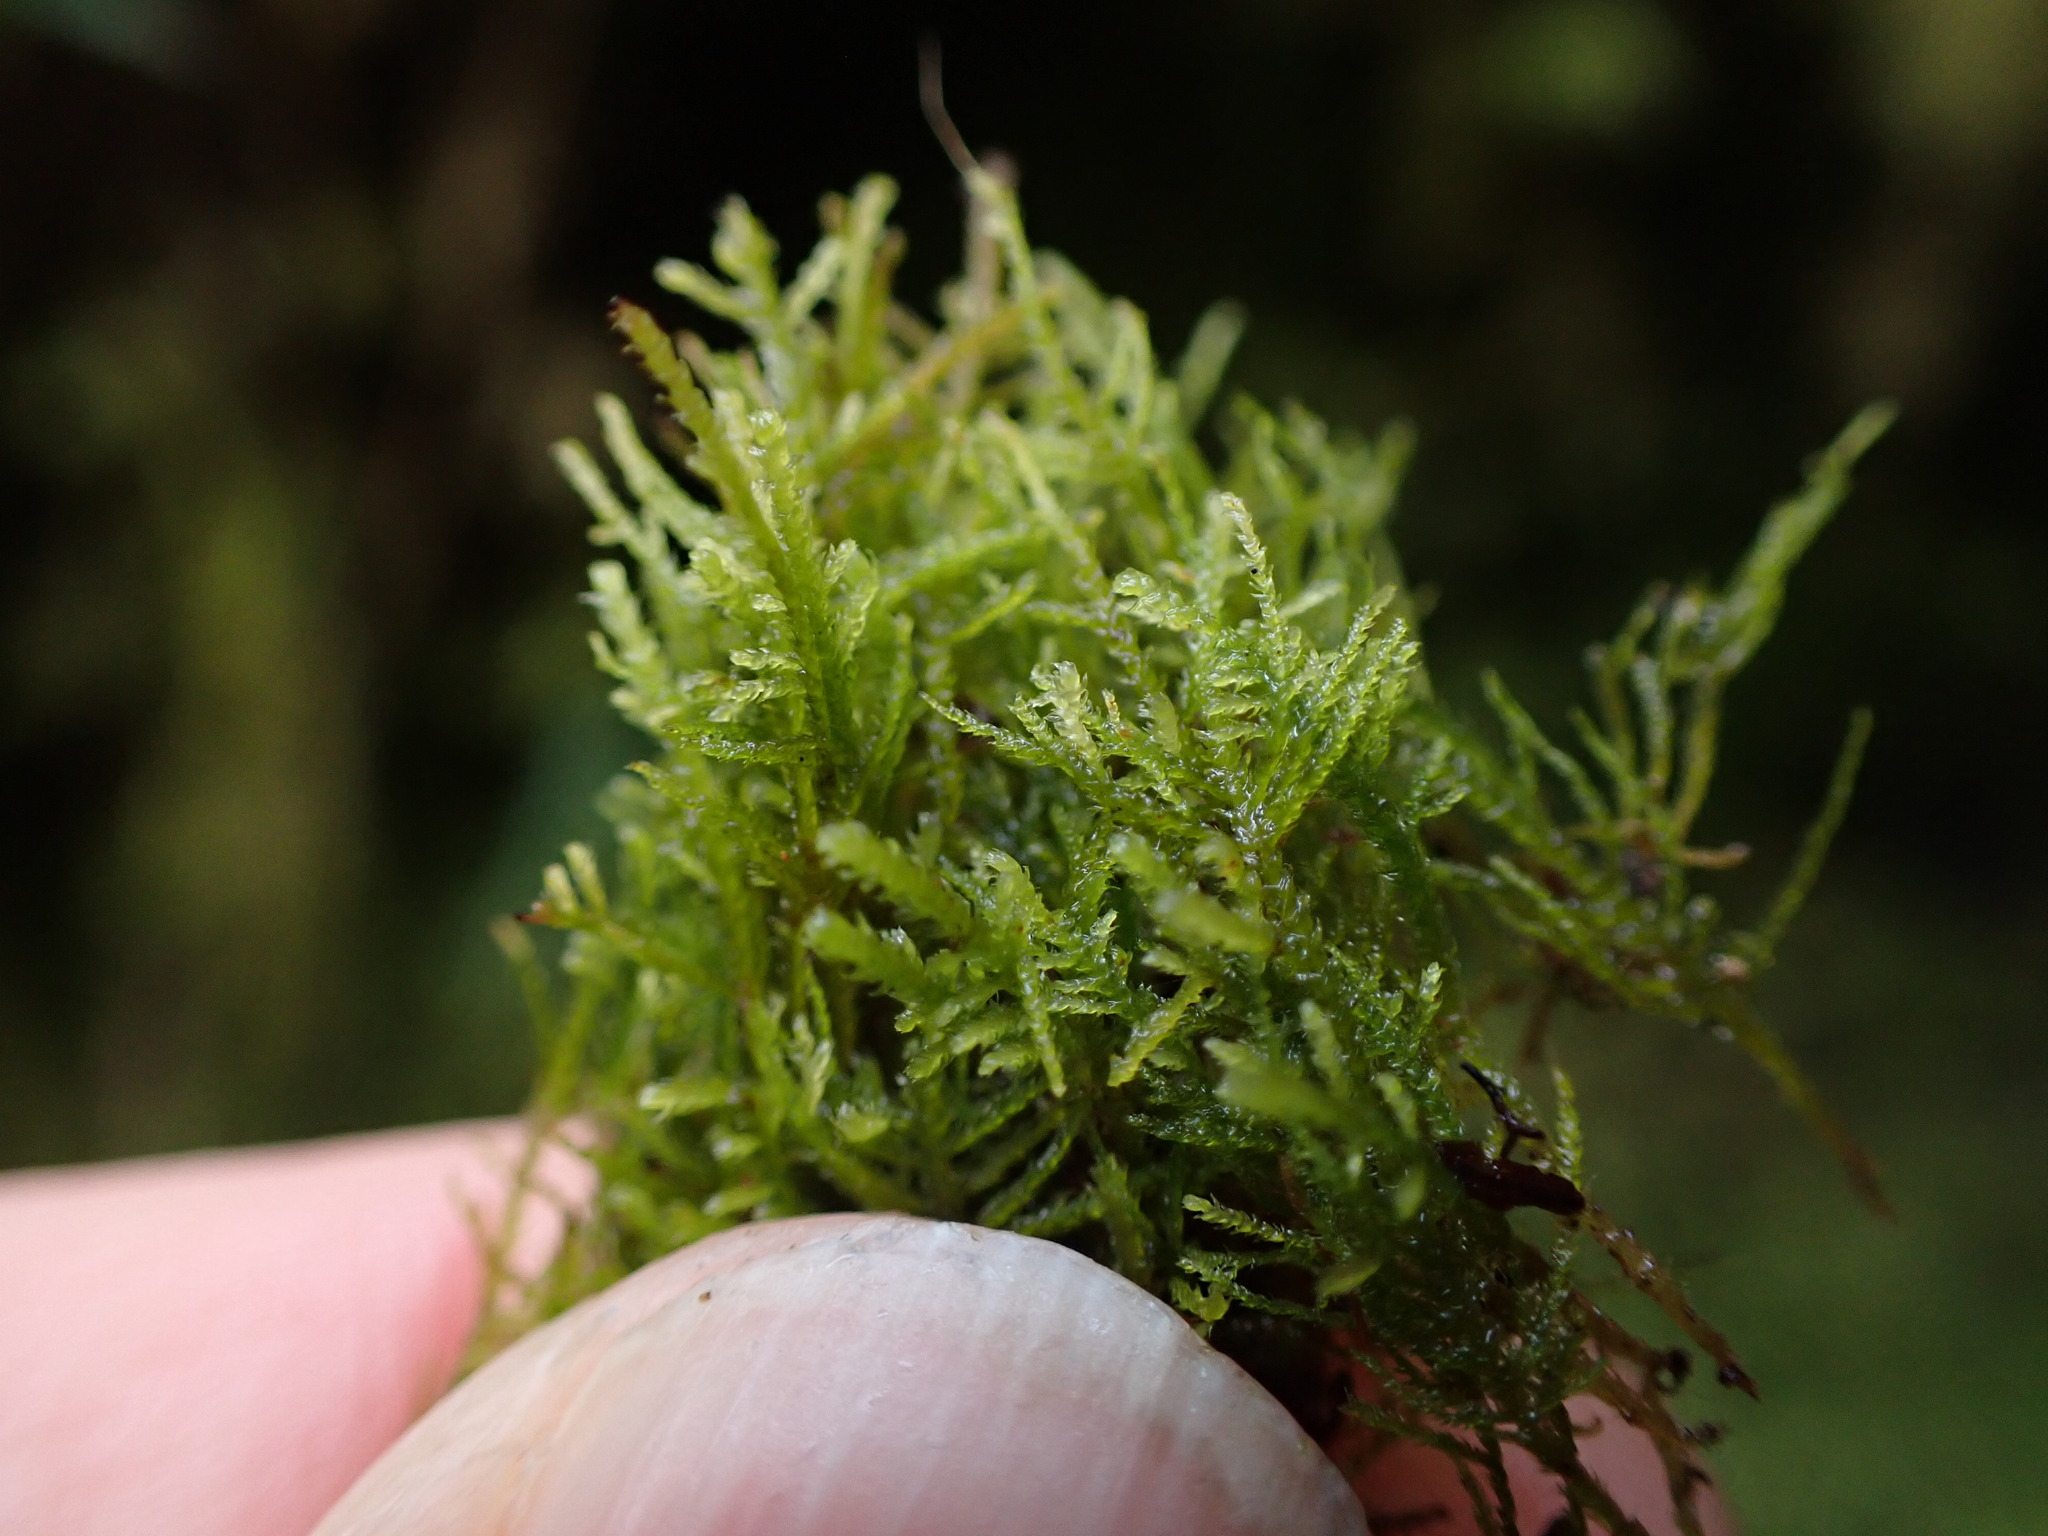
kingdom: Plantae
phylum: Bryophyta
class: Bryopsida
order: Hypnales
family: Lembophyllaceae
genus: Heterocladium
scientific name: Heterocladium macounii
